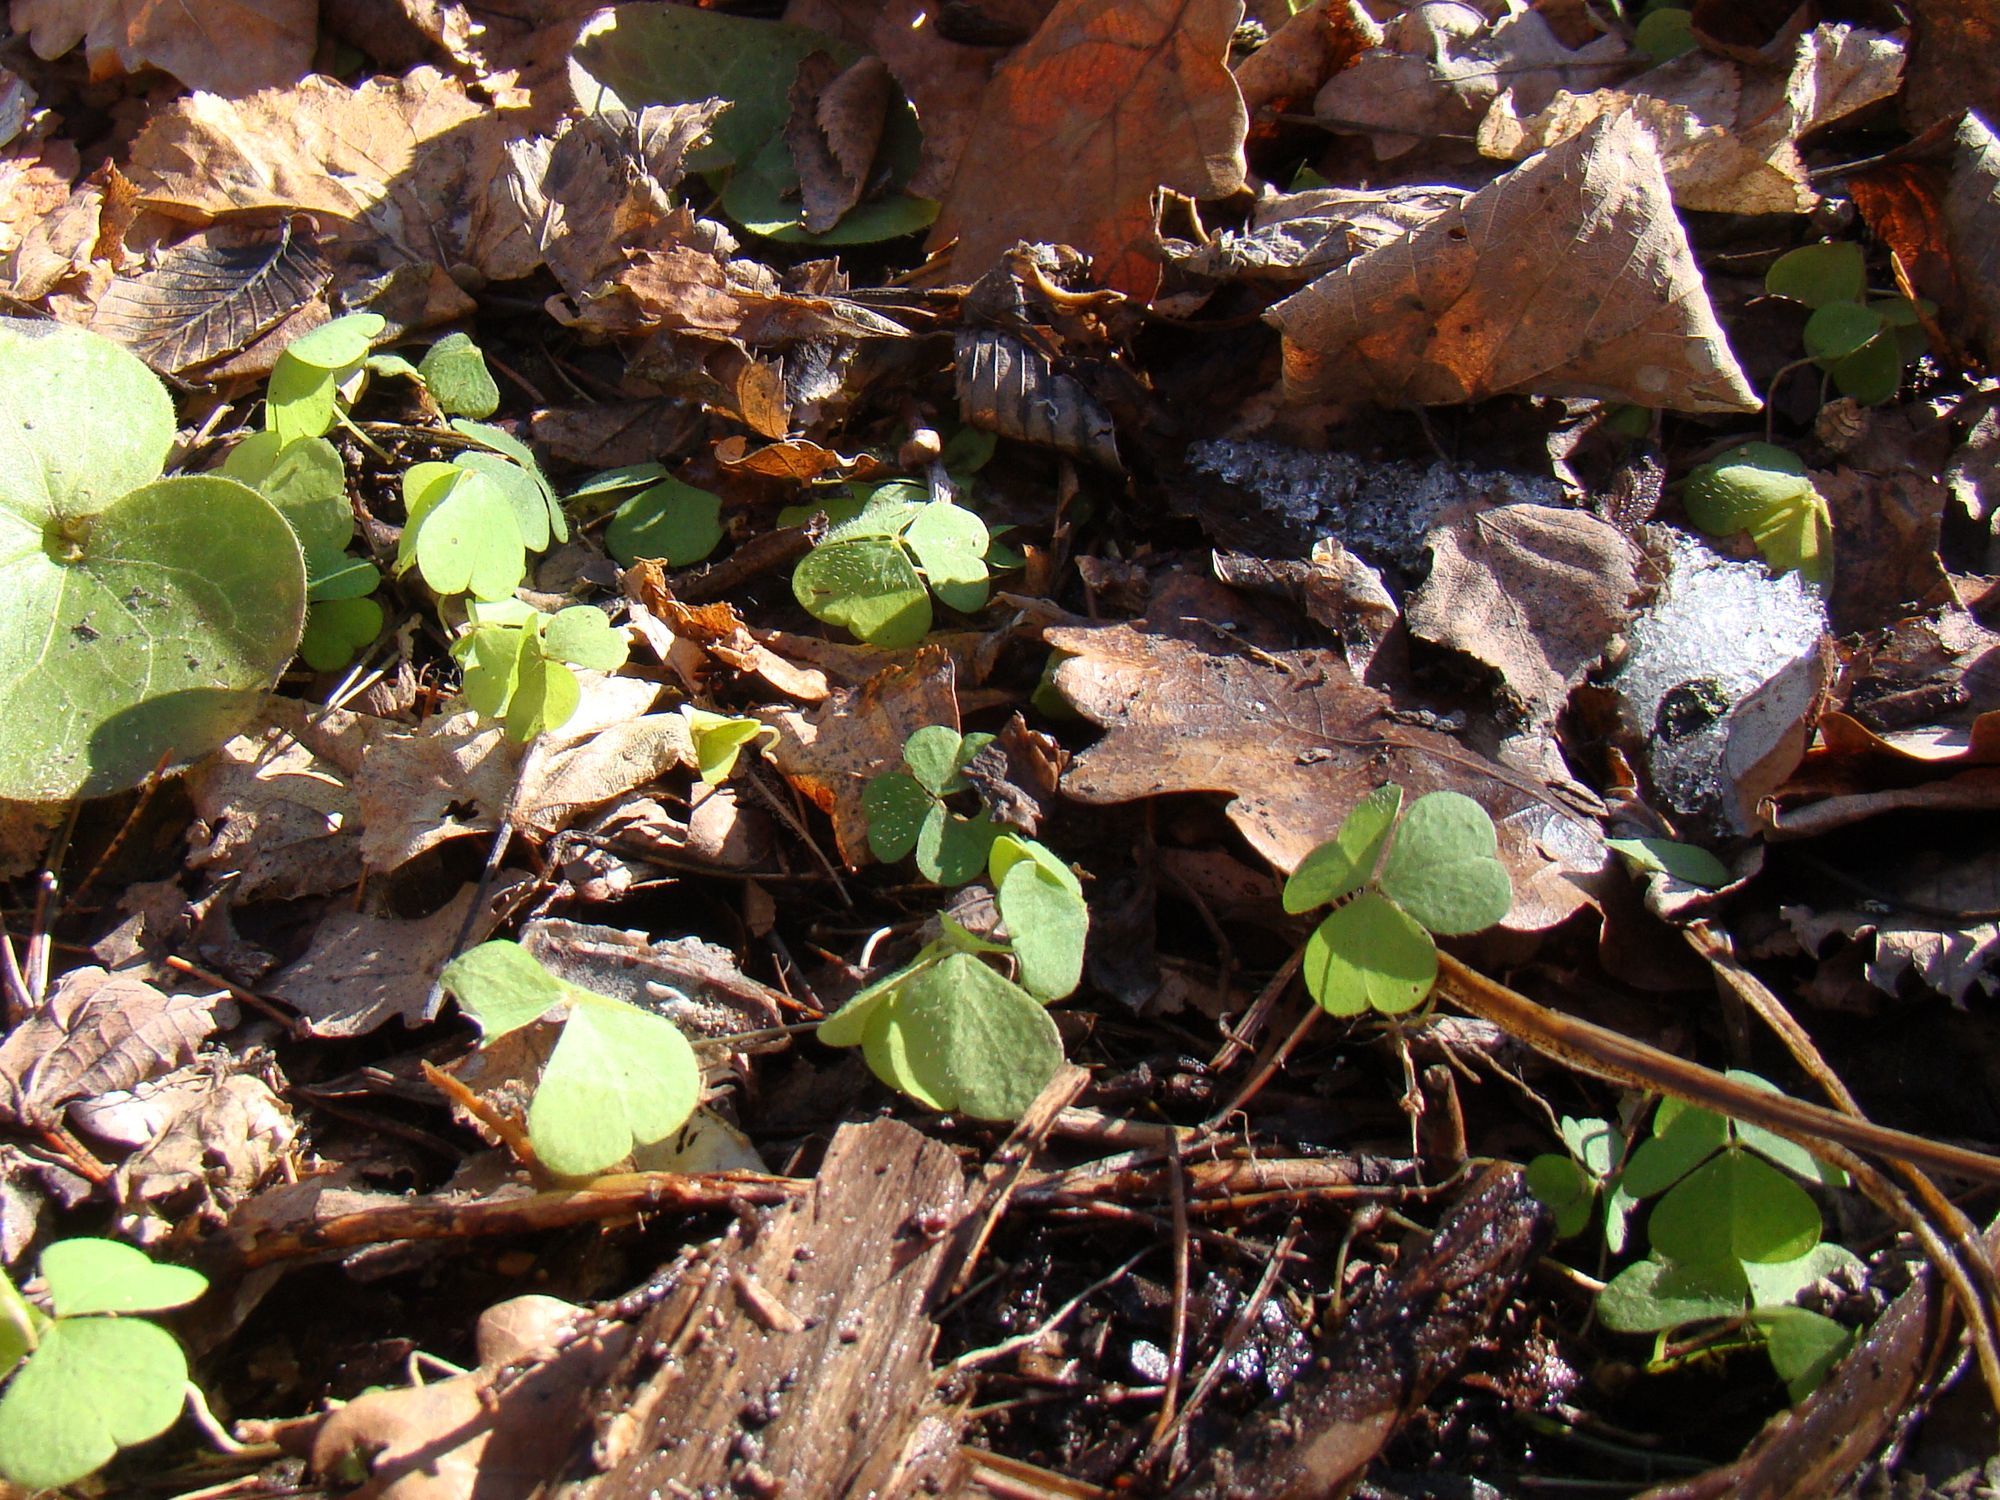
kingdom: Plantae
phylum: Tracheophyta
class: Magnoliopsida
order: Oxalidales
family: Oxalidaceae
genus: Oxalis
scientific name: Oxalis acetosella
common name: Wood-sorrel
